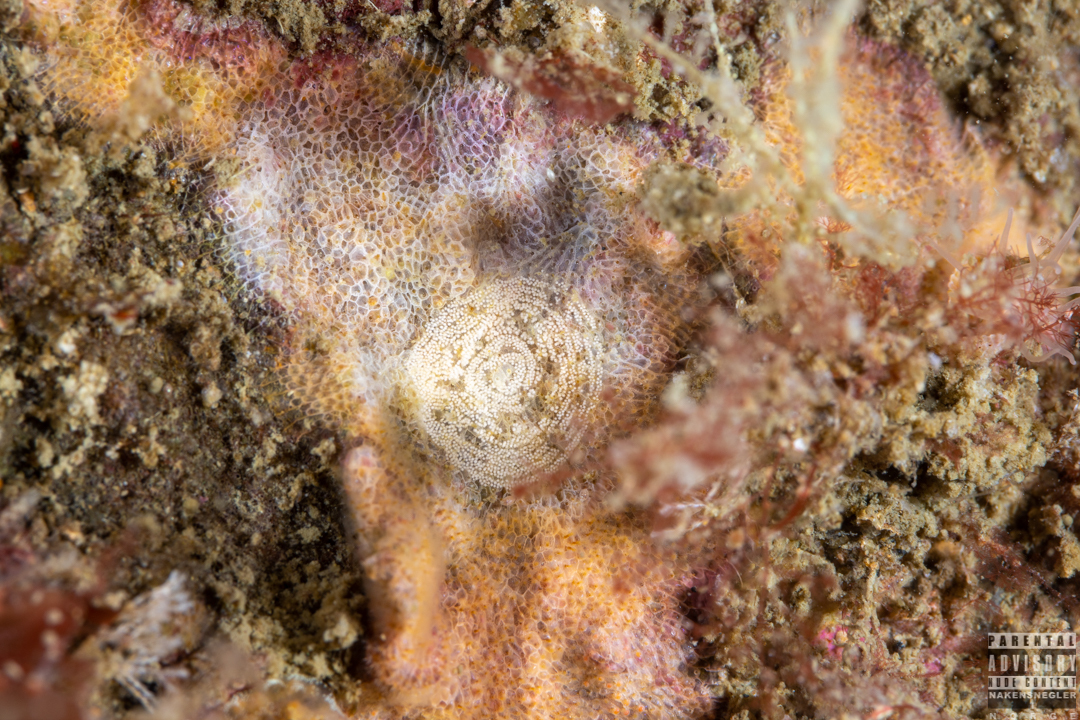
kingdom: Animalia
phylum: Mollusca
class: Gastropoda
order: Nudibranchia
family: Onchidorididae
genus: Idaliadoris
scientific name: Idaliadoris depressa
